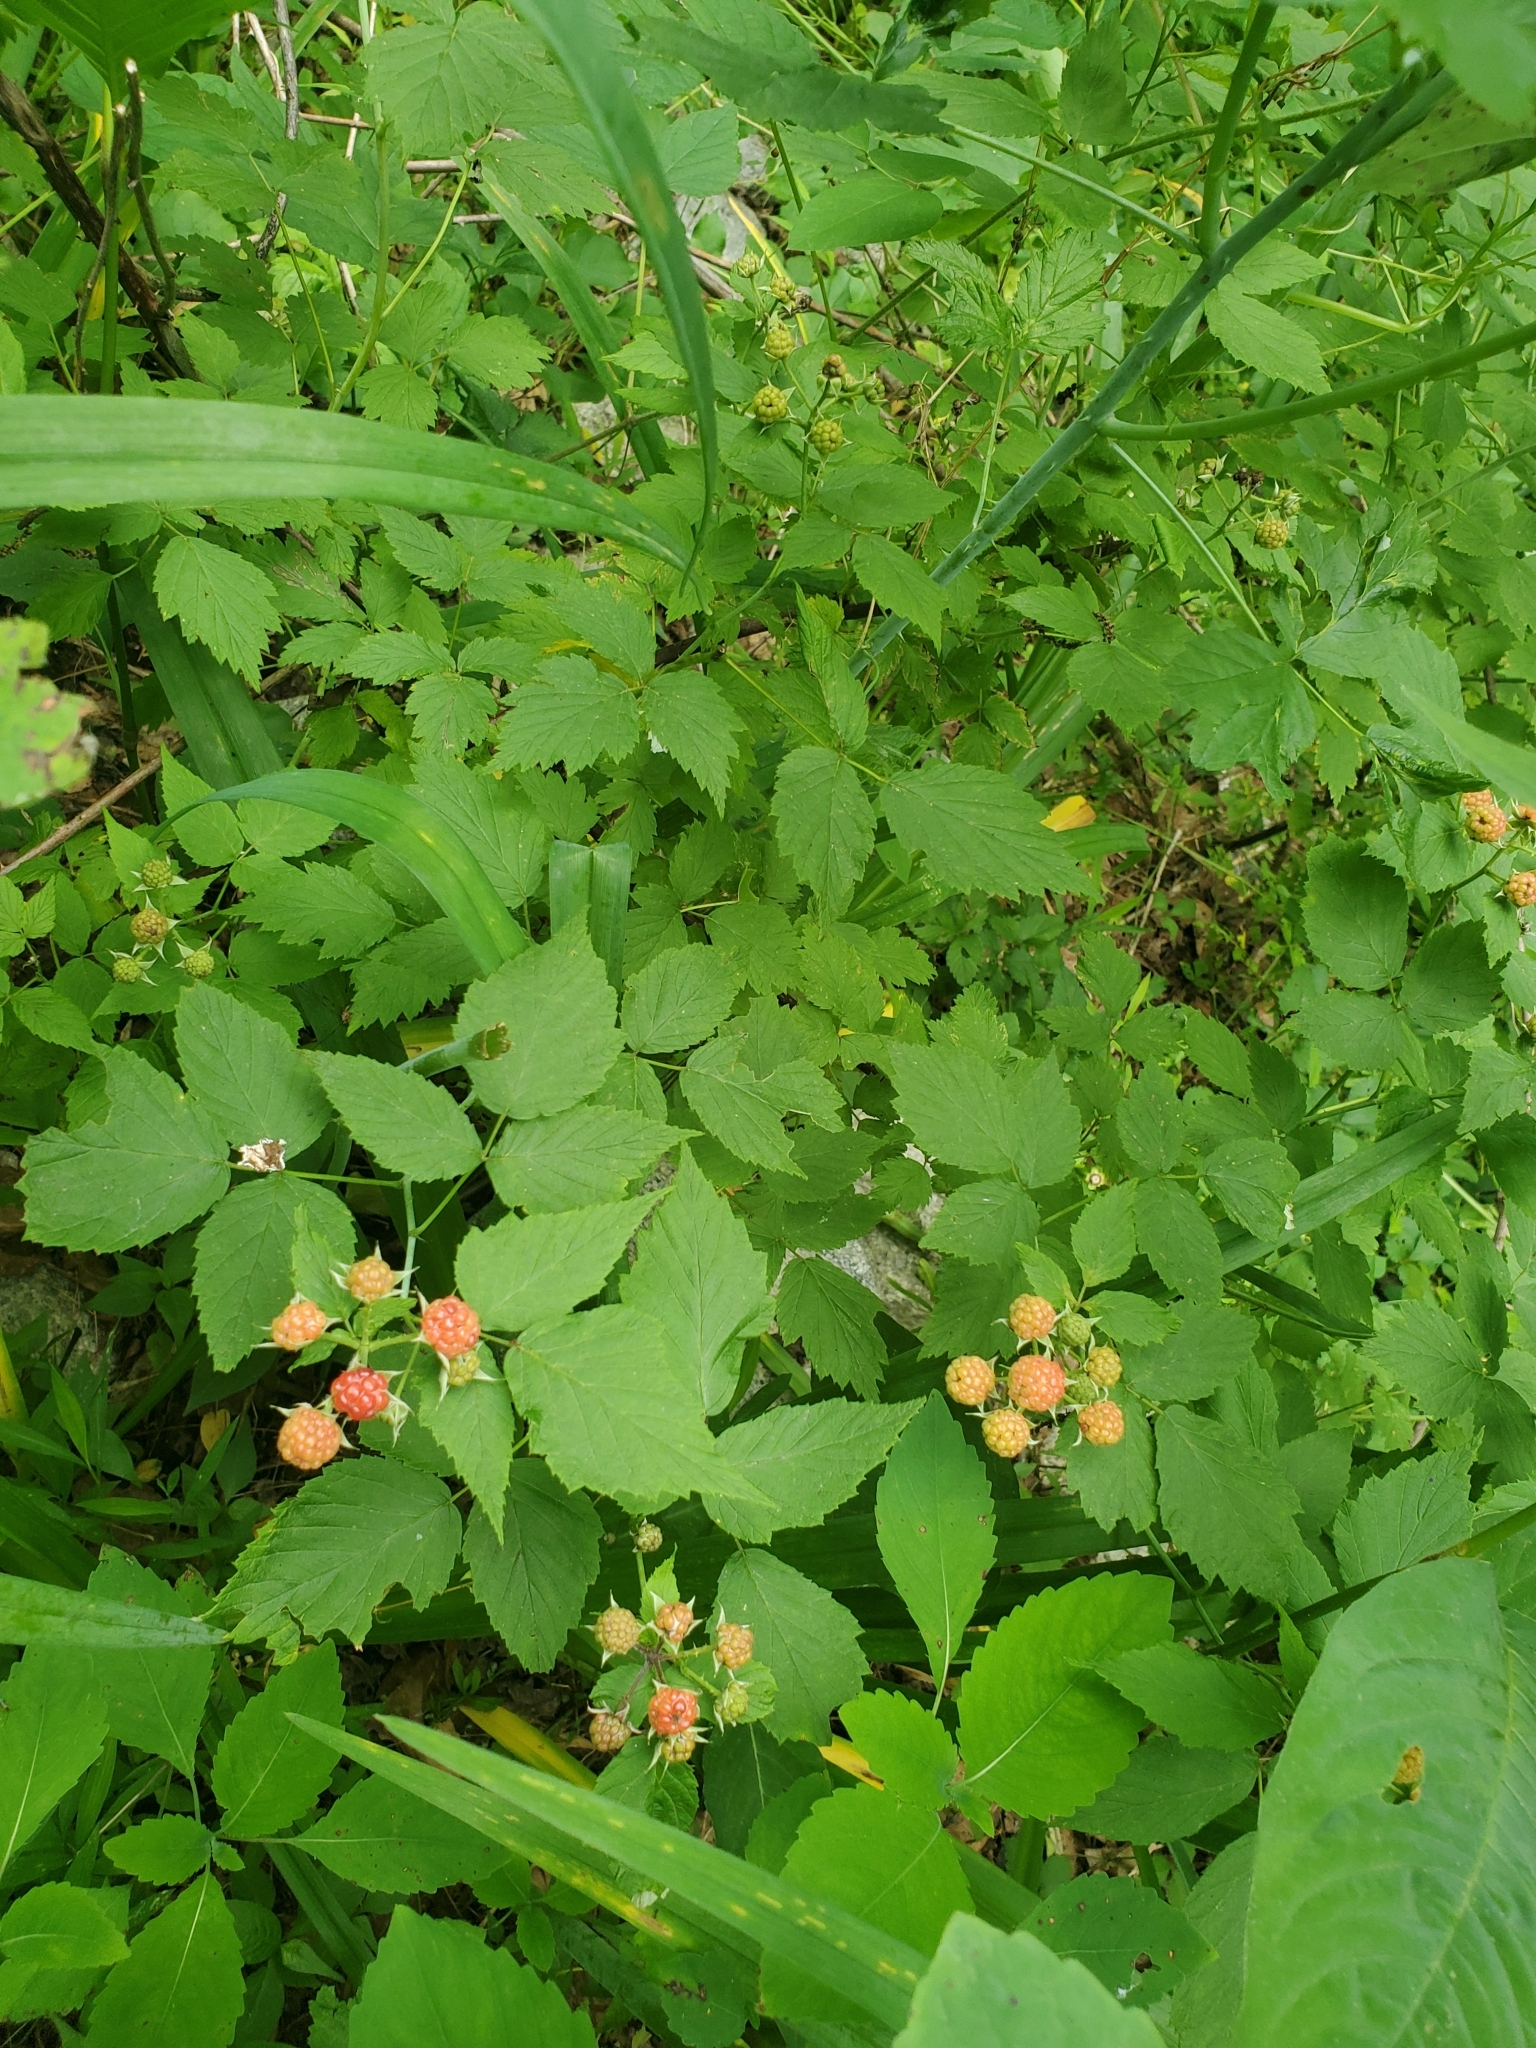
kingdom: Plantae
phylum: Tracheophyta
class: Magnoliopsida
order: Rosales
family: Rosaceae
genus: Rubus
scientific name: Rubus occidentalis
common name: Black raspberry
